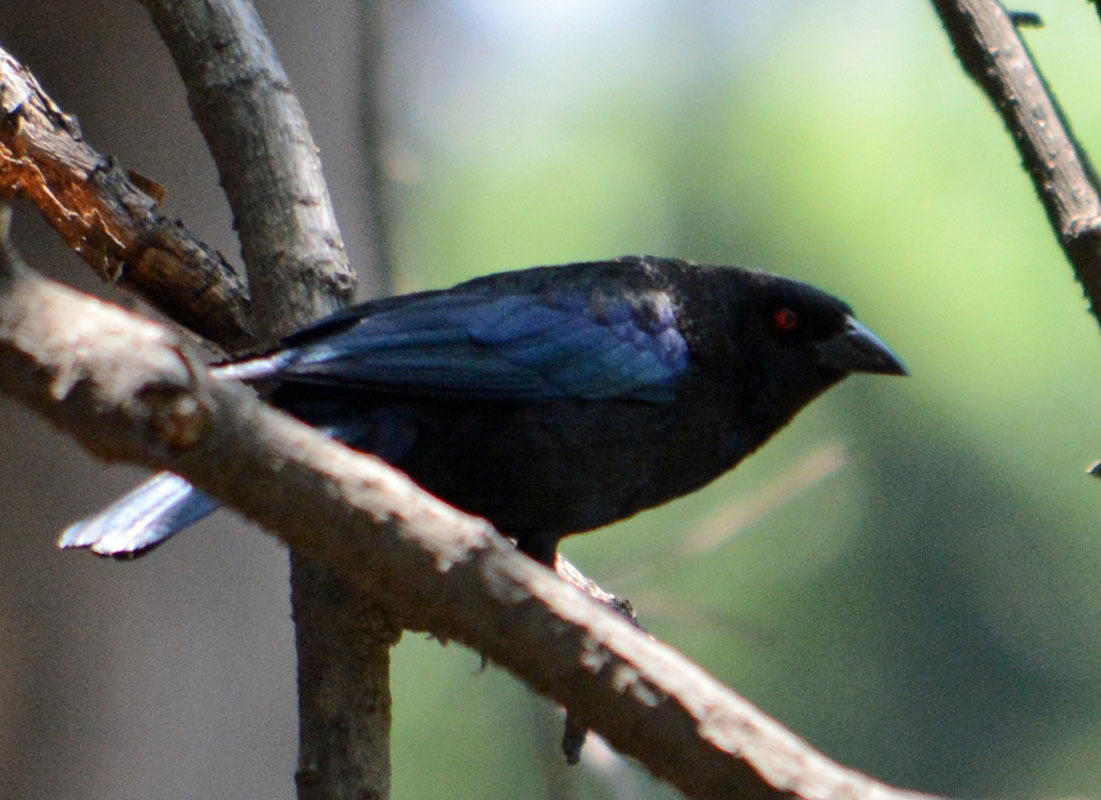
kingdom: Animalia
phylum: Chordata
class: Aves
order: Passeriformes
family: Icteridae
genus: Molothrus
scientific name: Molothrus aeneus
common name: Bronzed cowbird
